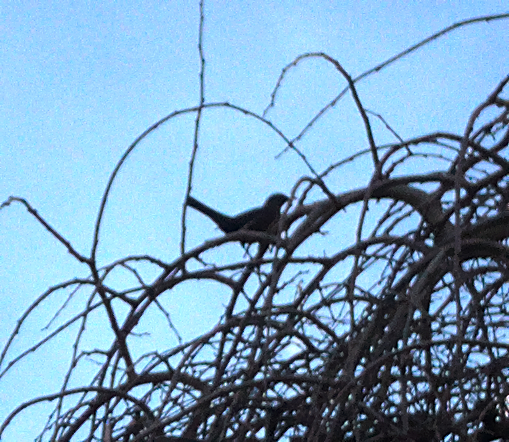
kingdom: Animalia
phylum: Chordata
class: Aves
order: Passeriformes
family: Turdidae
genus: Turdus
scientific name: Turdus merula
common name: Common blackbird
